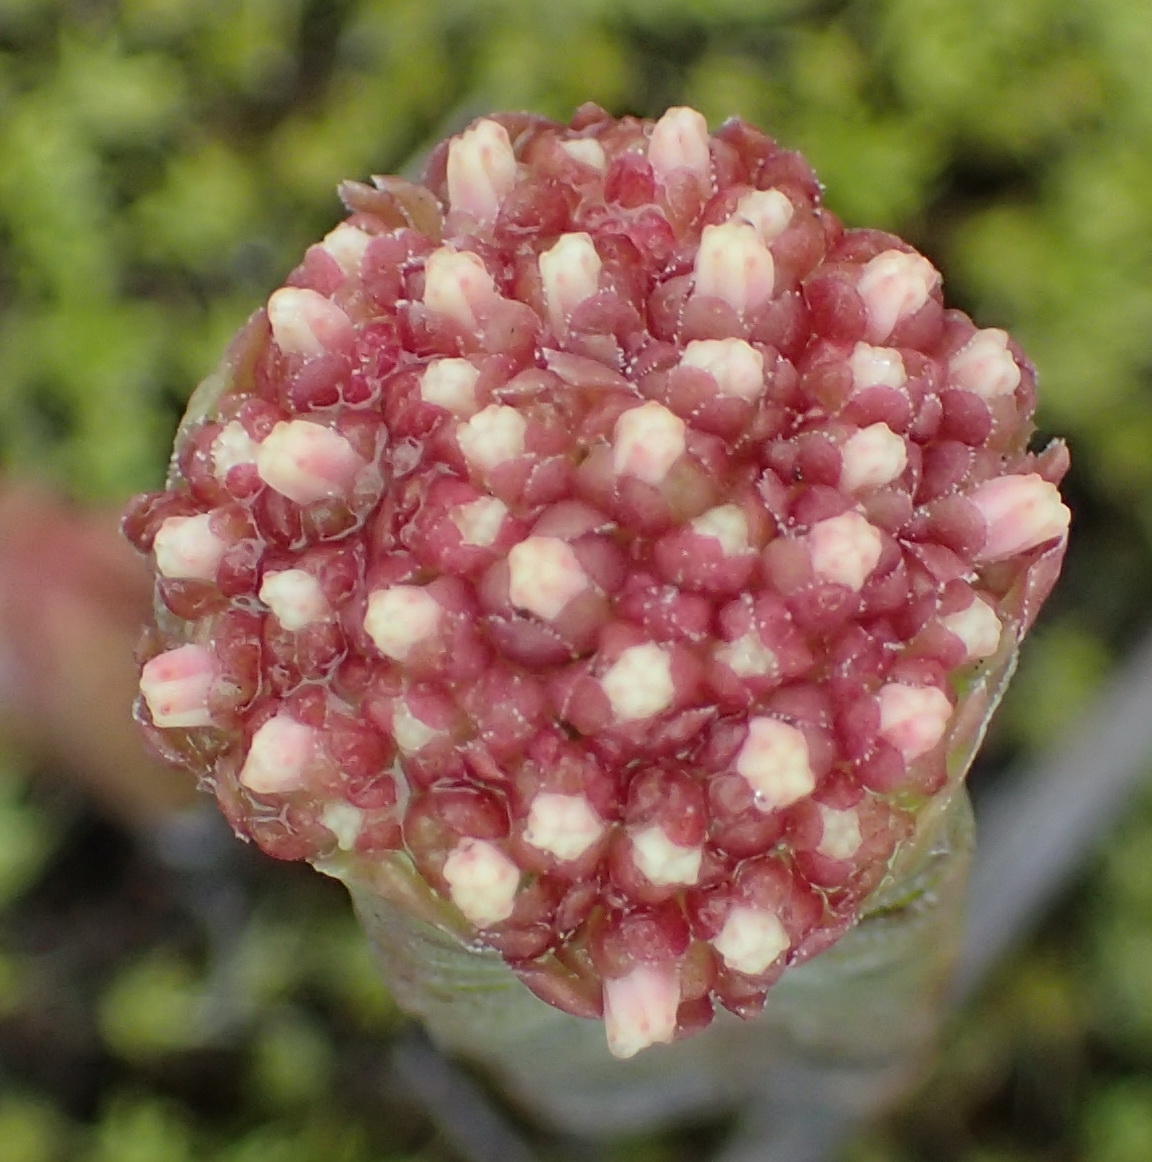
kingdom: Plantae
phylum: Tracheophyta
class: Magnoliopsida
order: Saxifragales
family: Crassulaceae
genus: Crassula
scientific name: Crassula pyramidalis
